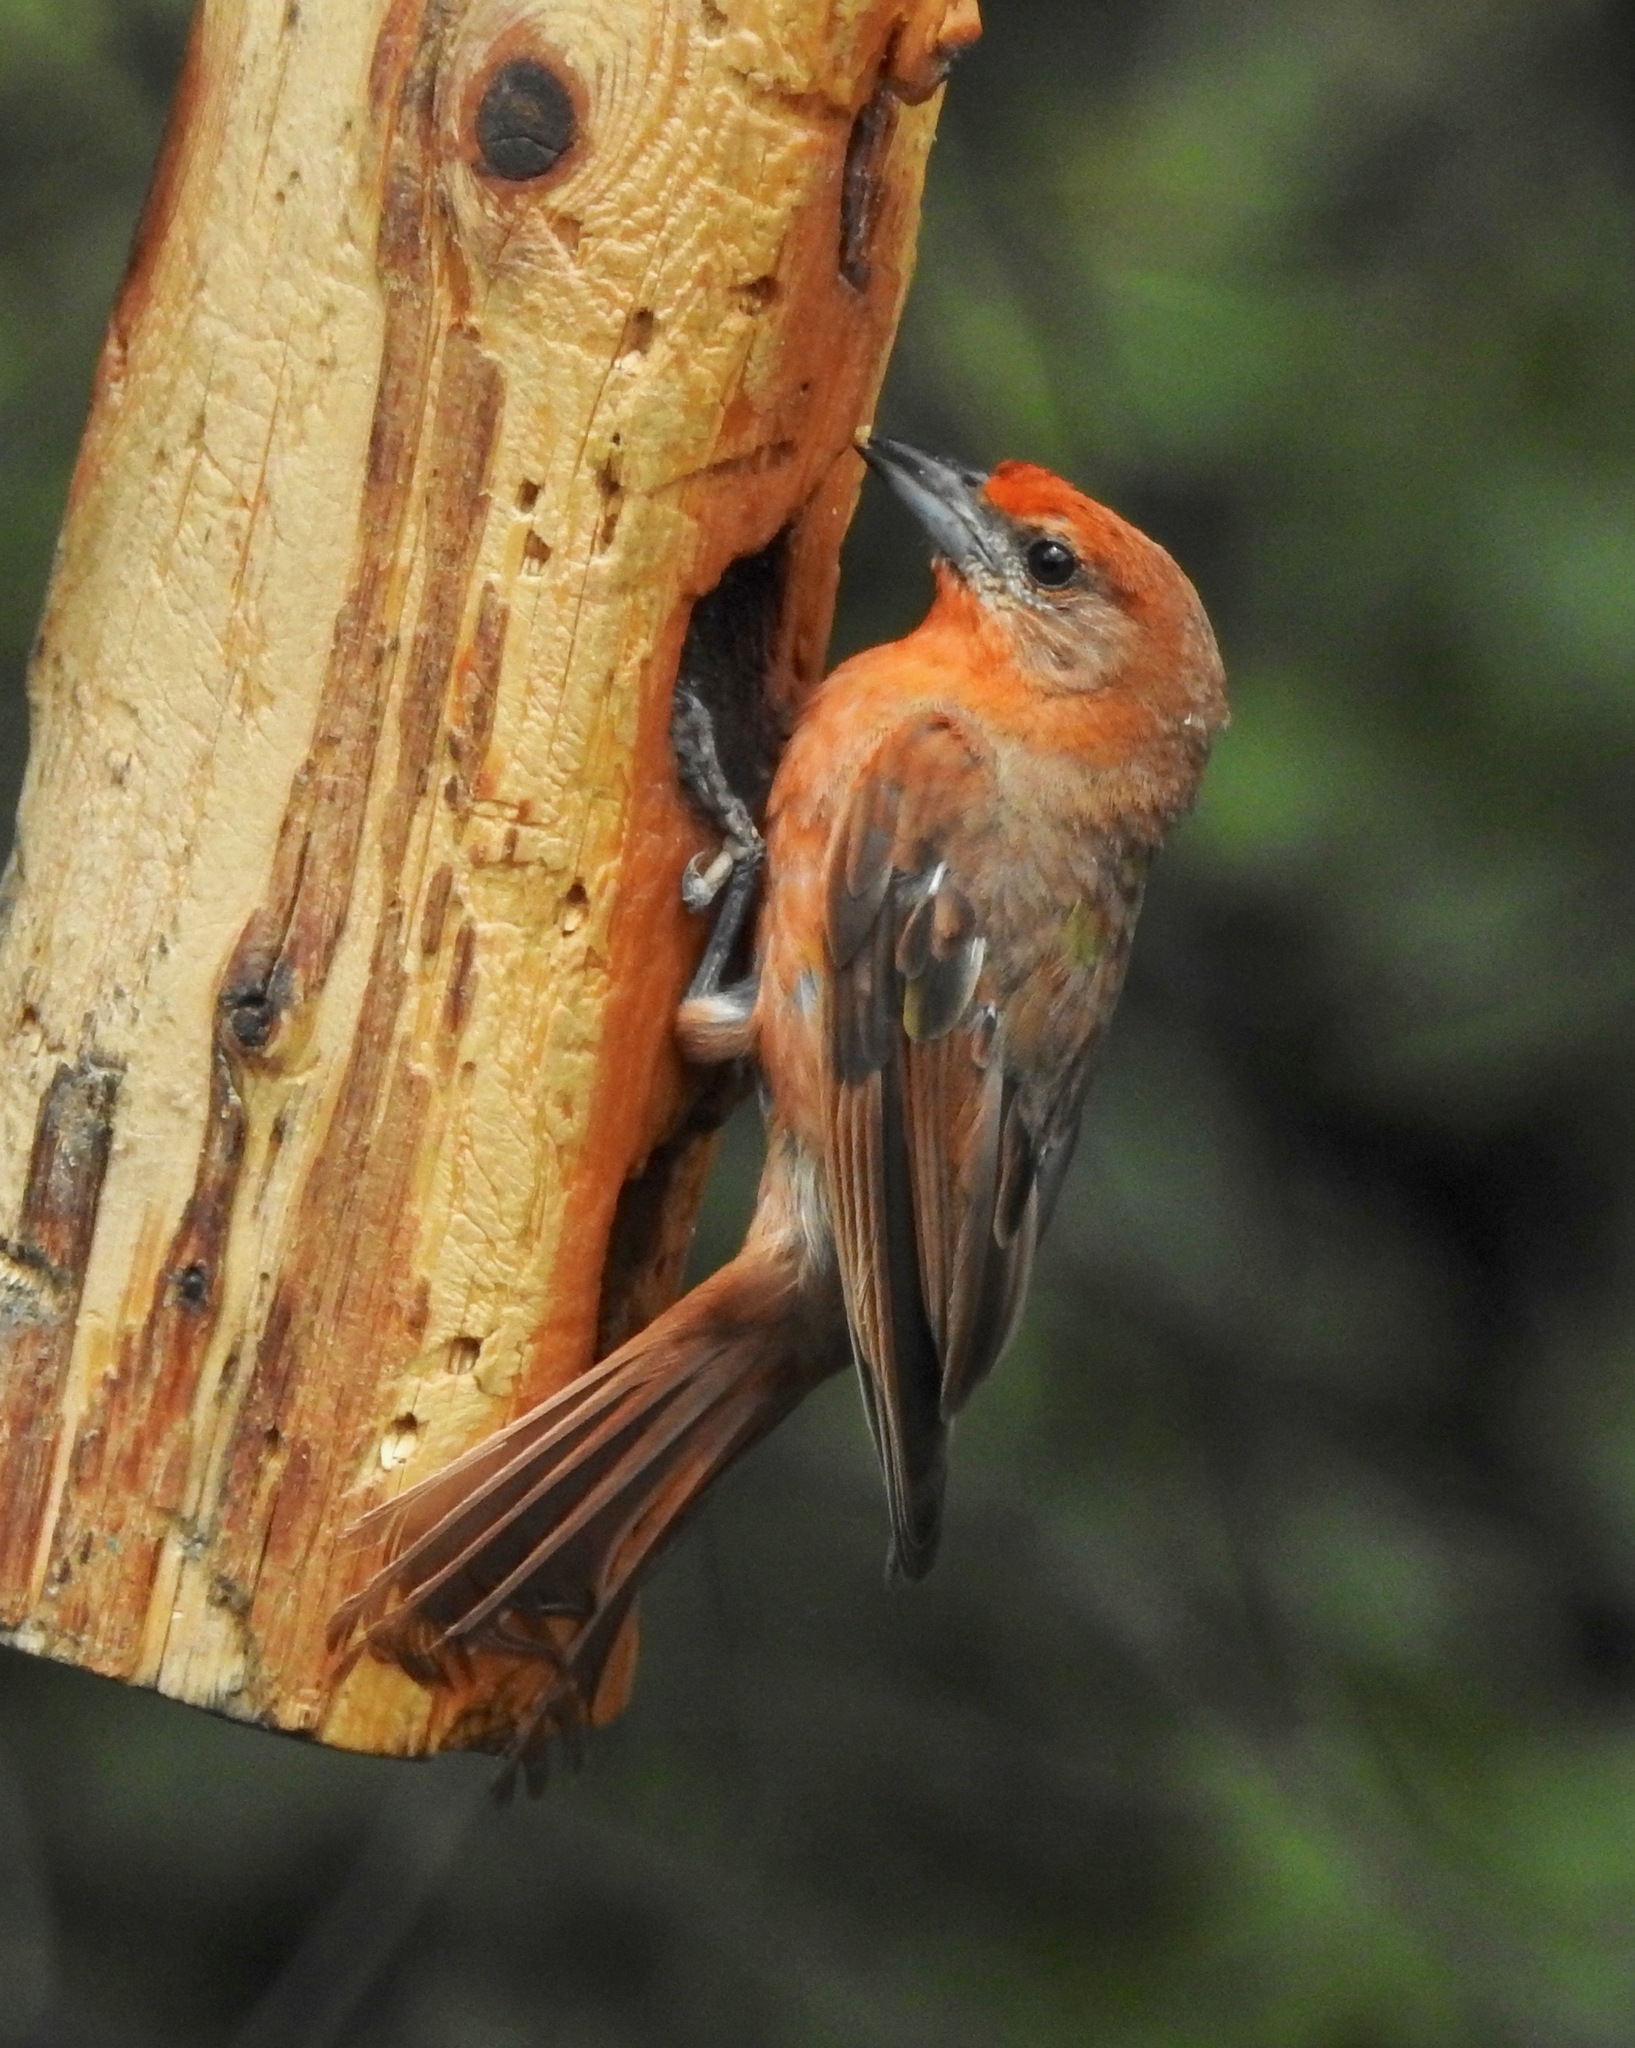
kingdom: Animalia
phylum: Chordata
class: Aves
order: Passeriformes
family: Cardinalidae
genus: Piranga
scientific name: Piranga flava
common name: Red tanager
